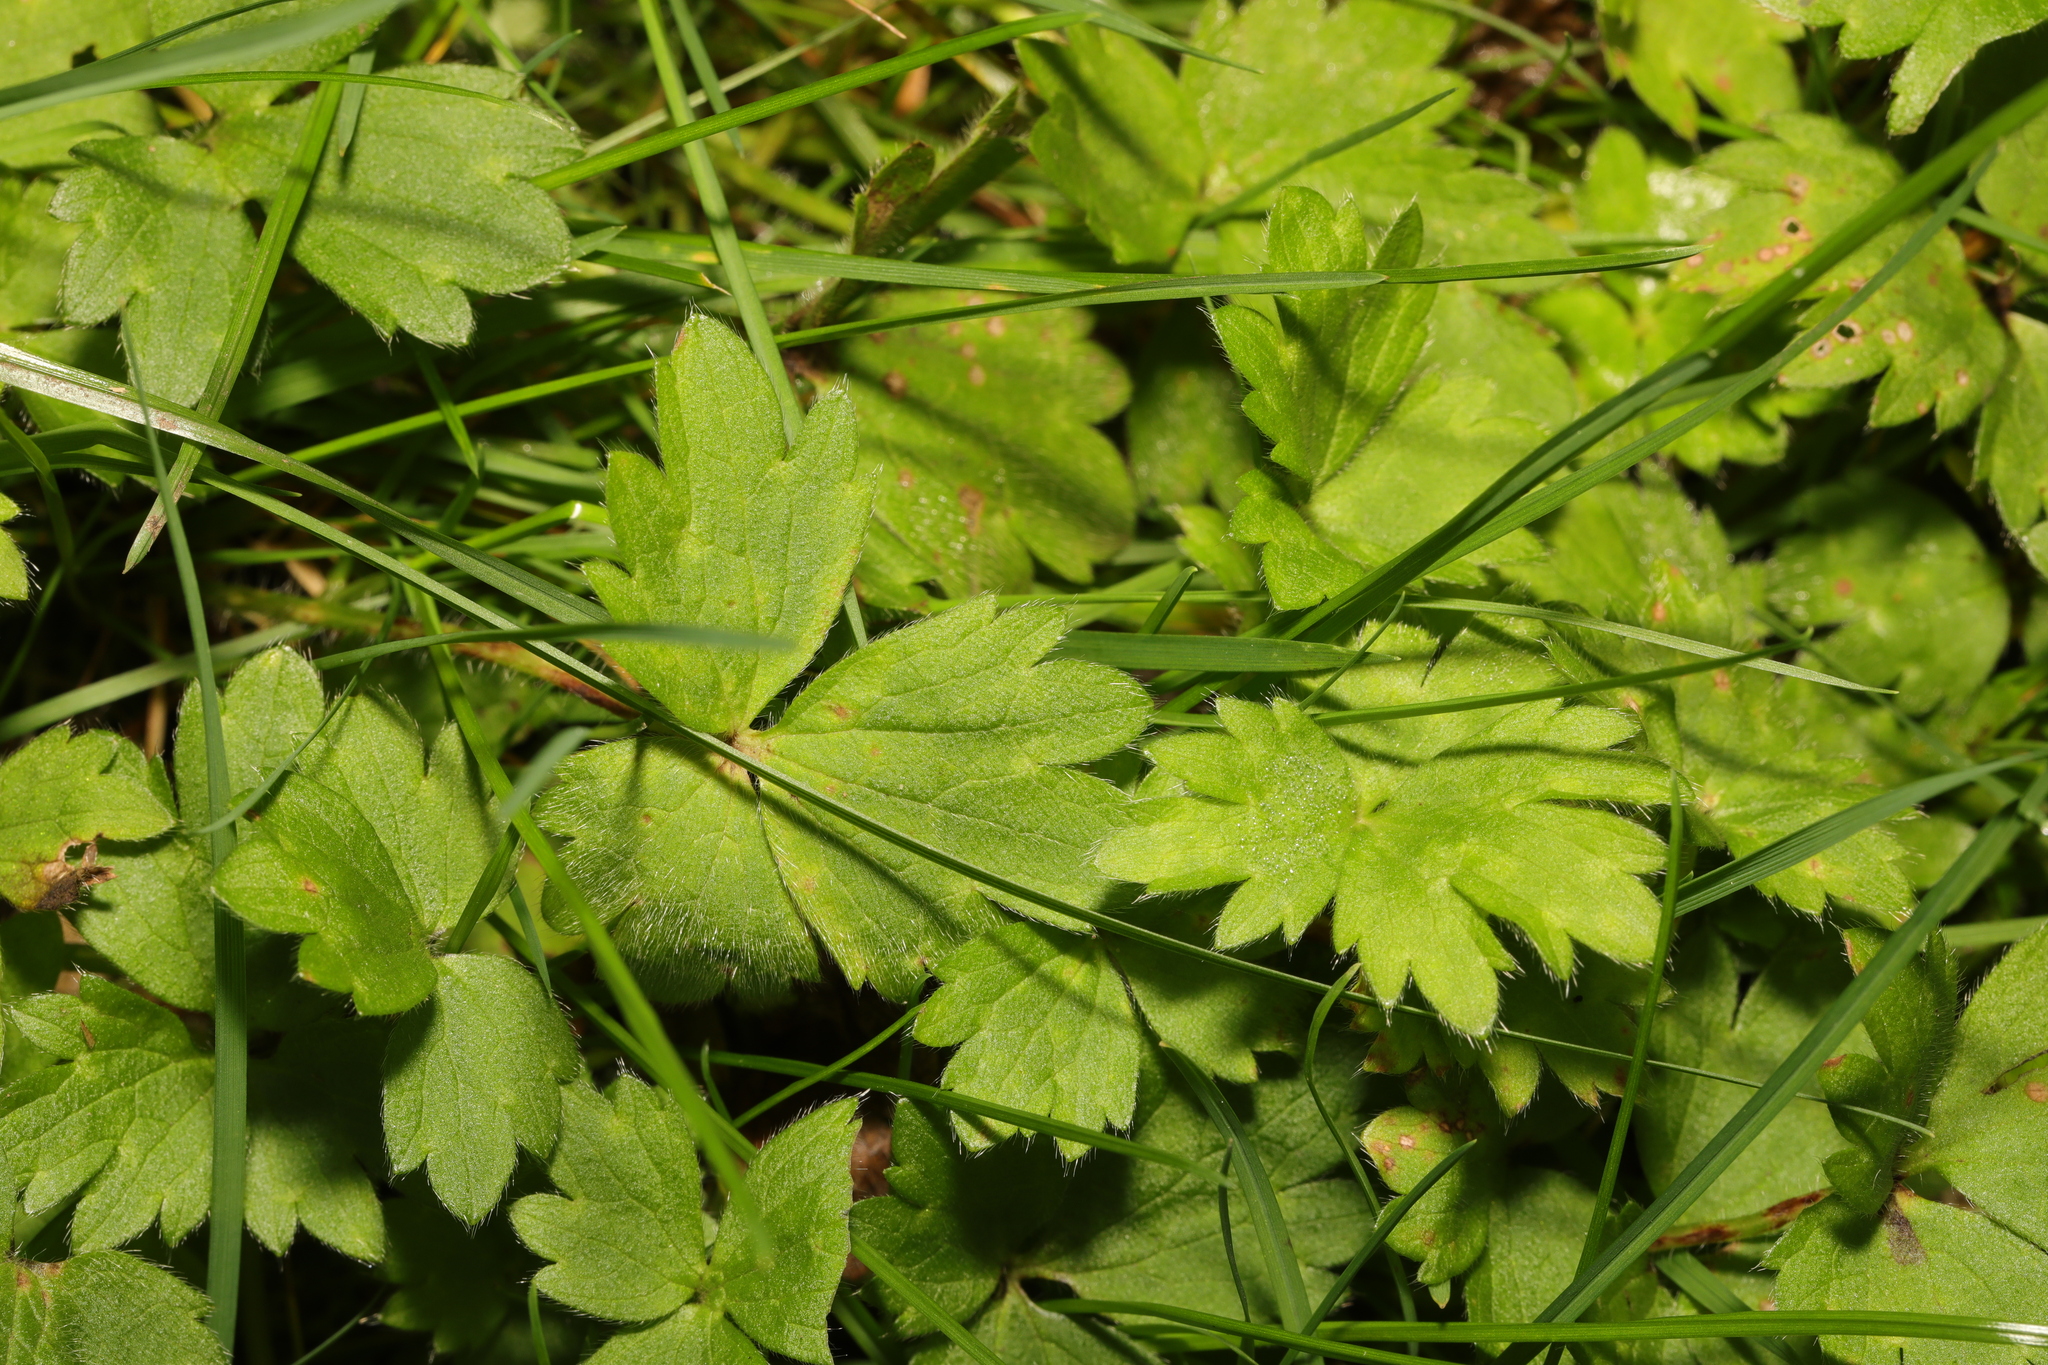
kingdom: Plantae
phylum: Tracheophyta
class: Magnoliopsida
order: Ranunculales
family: Ranunculaceae
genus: Ranunculus
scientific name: Ranunculus repens
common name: Creeping buttercup
